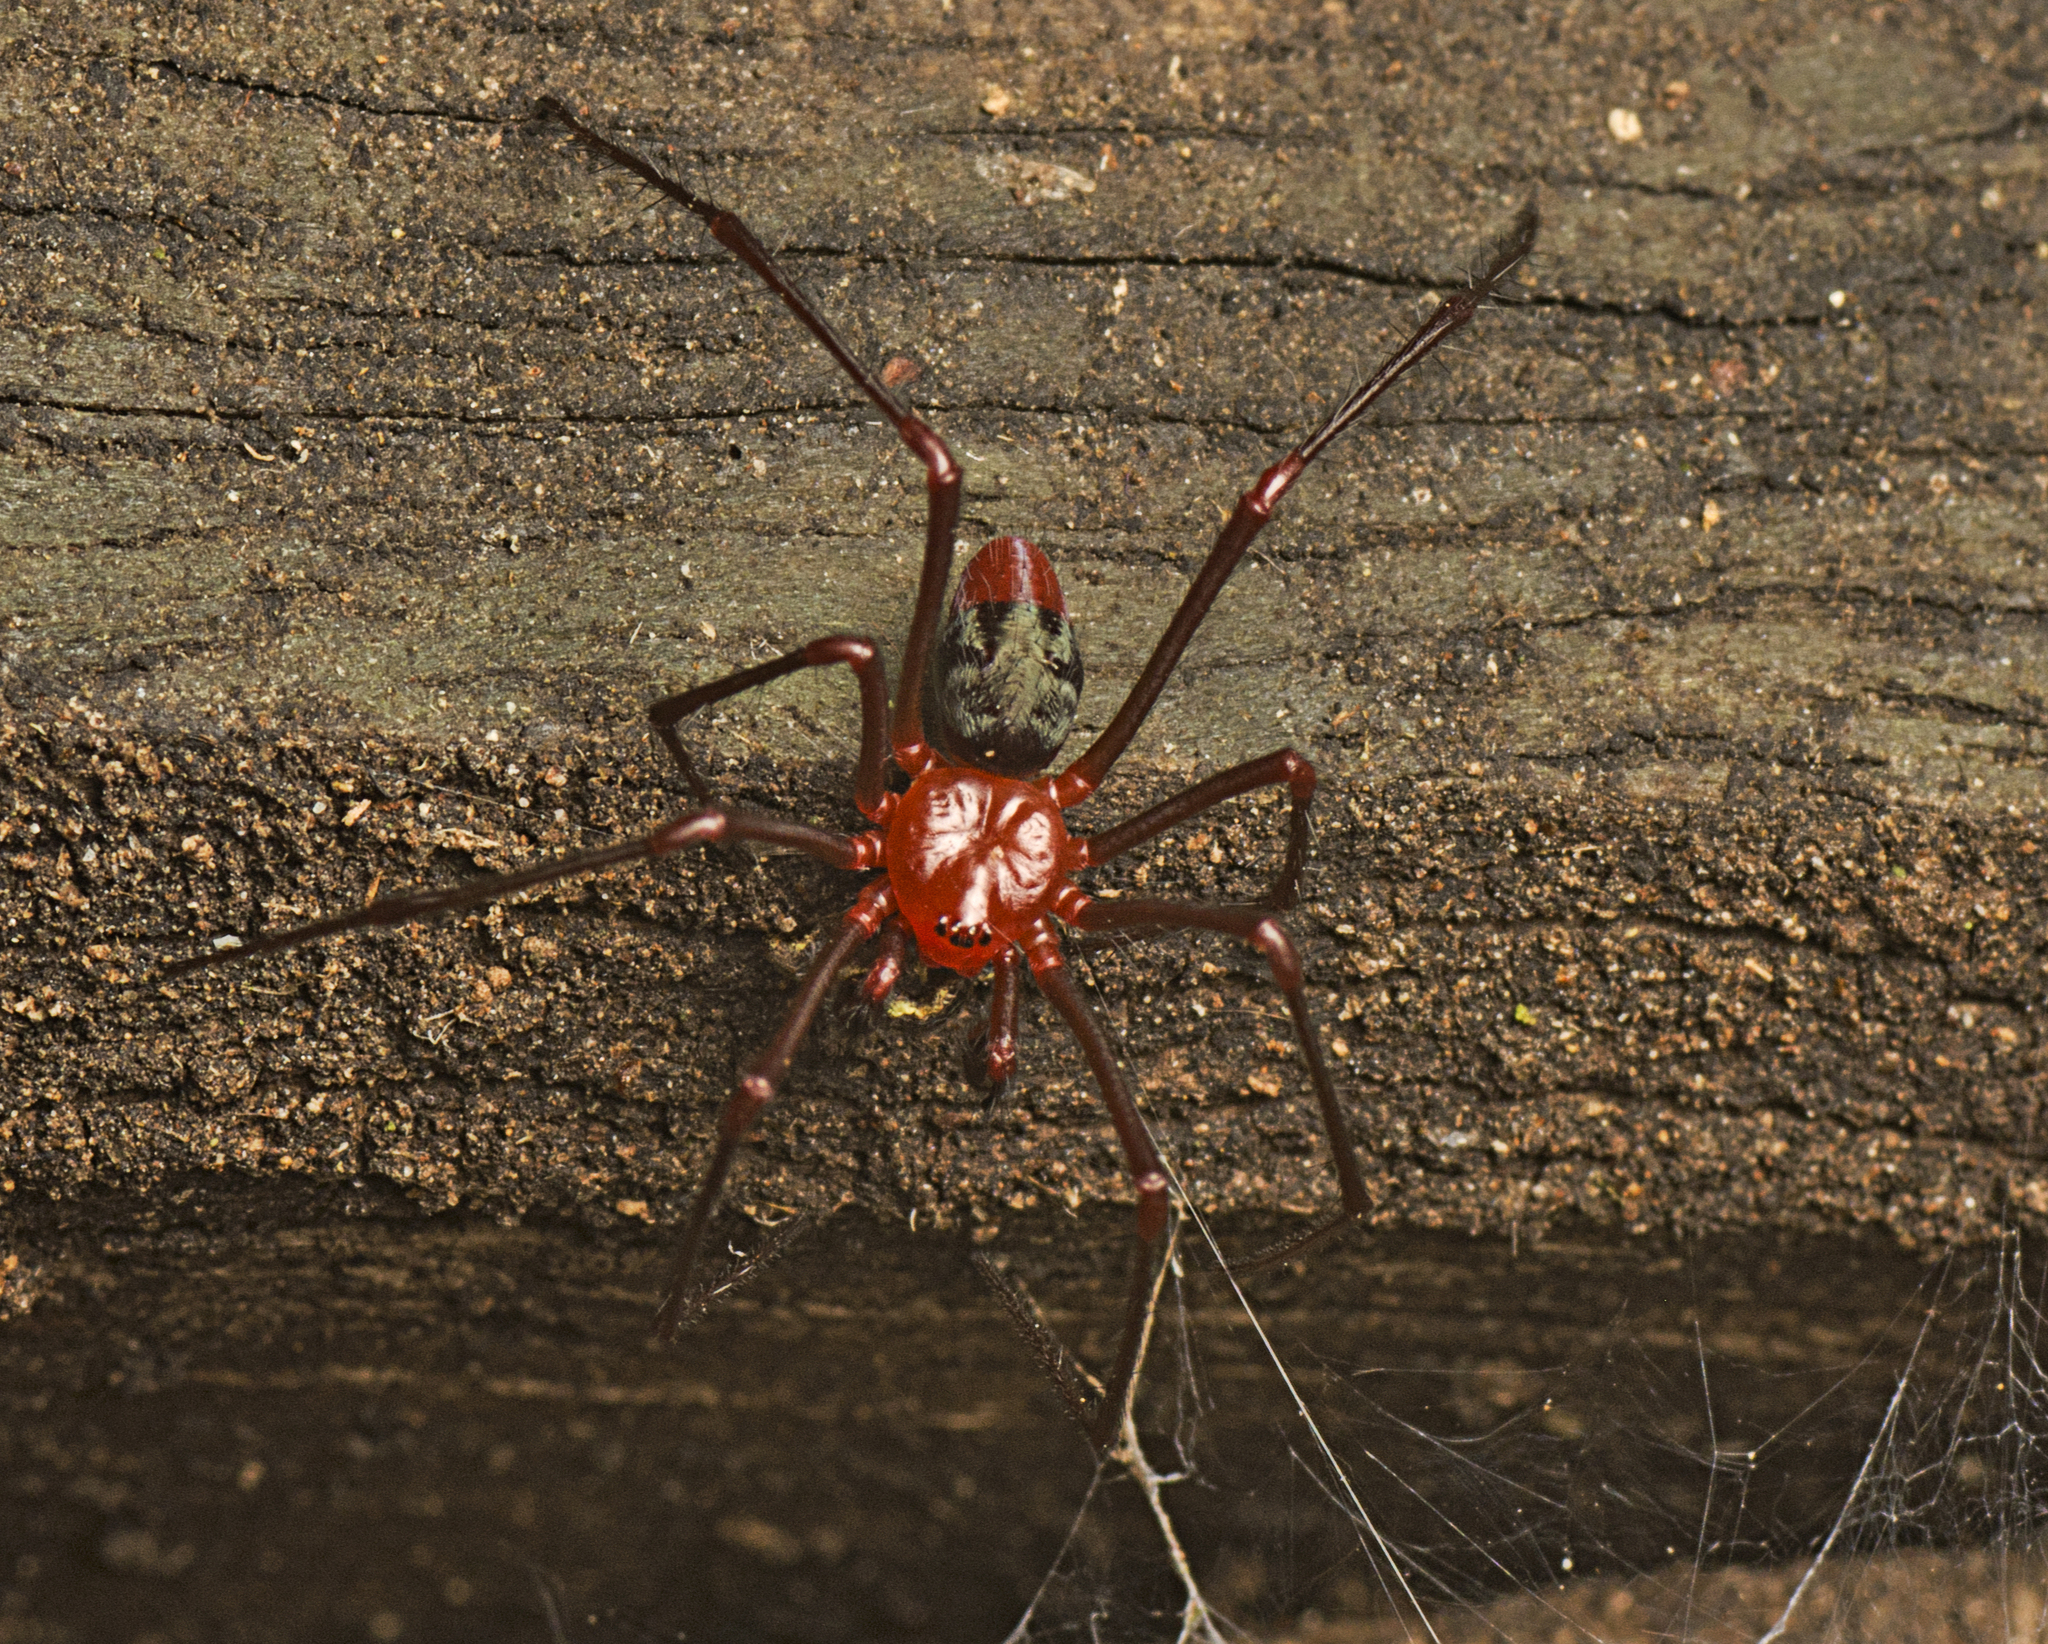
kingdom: Animalia
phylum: Arthropoda
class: Arachnida
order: Araneae
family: Nicodamidae
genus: Dimidamus
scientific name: Dimidamus dimidiatus
